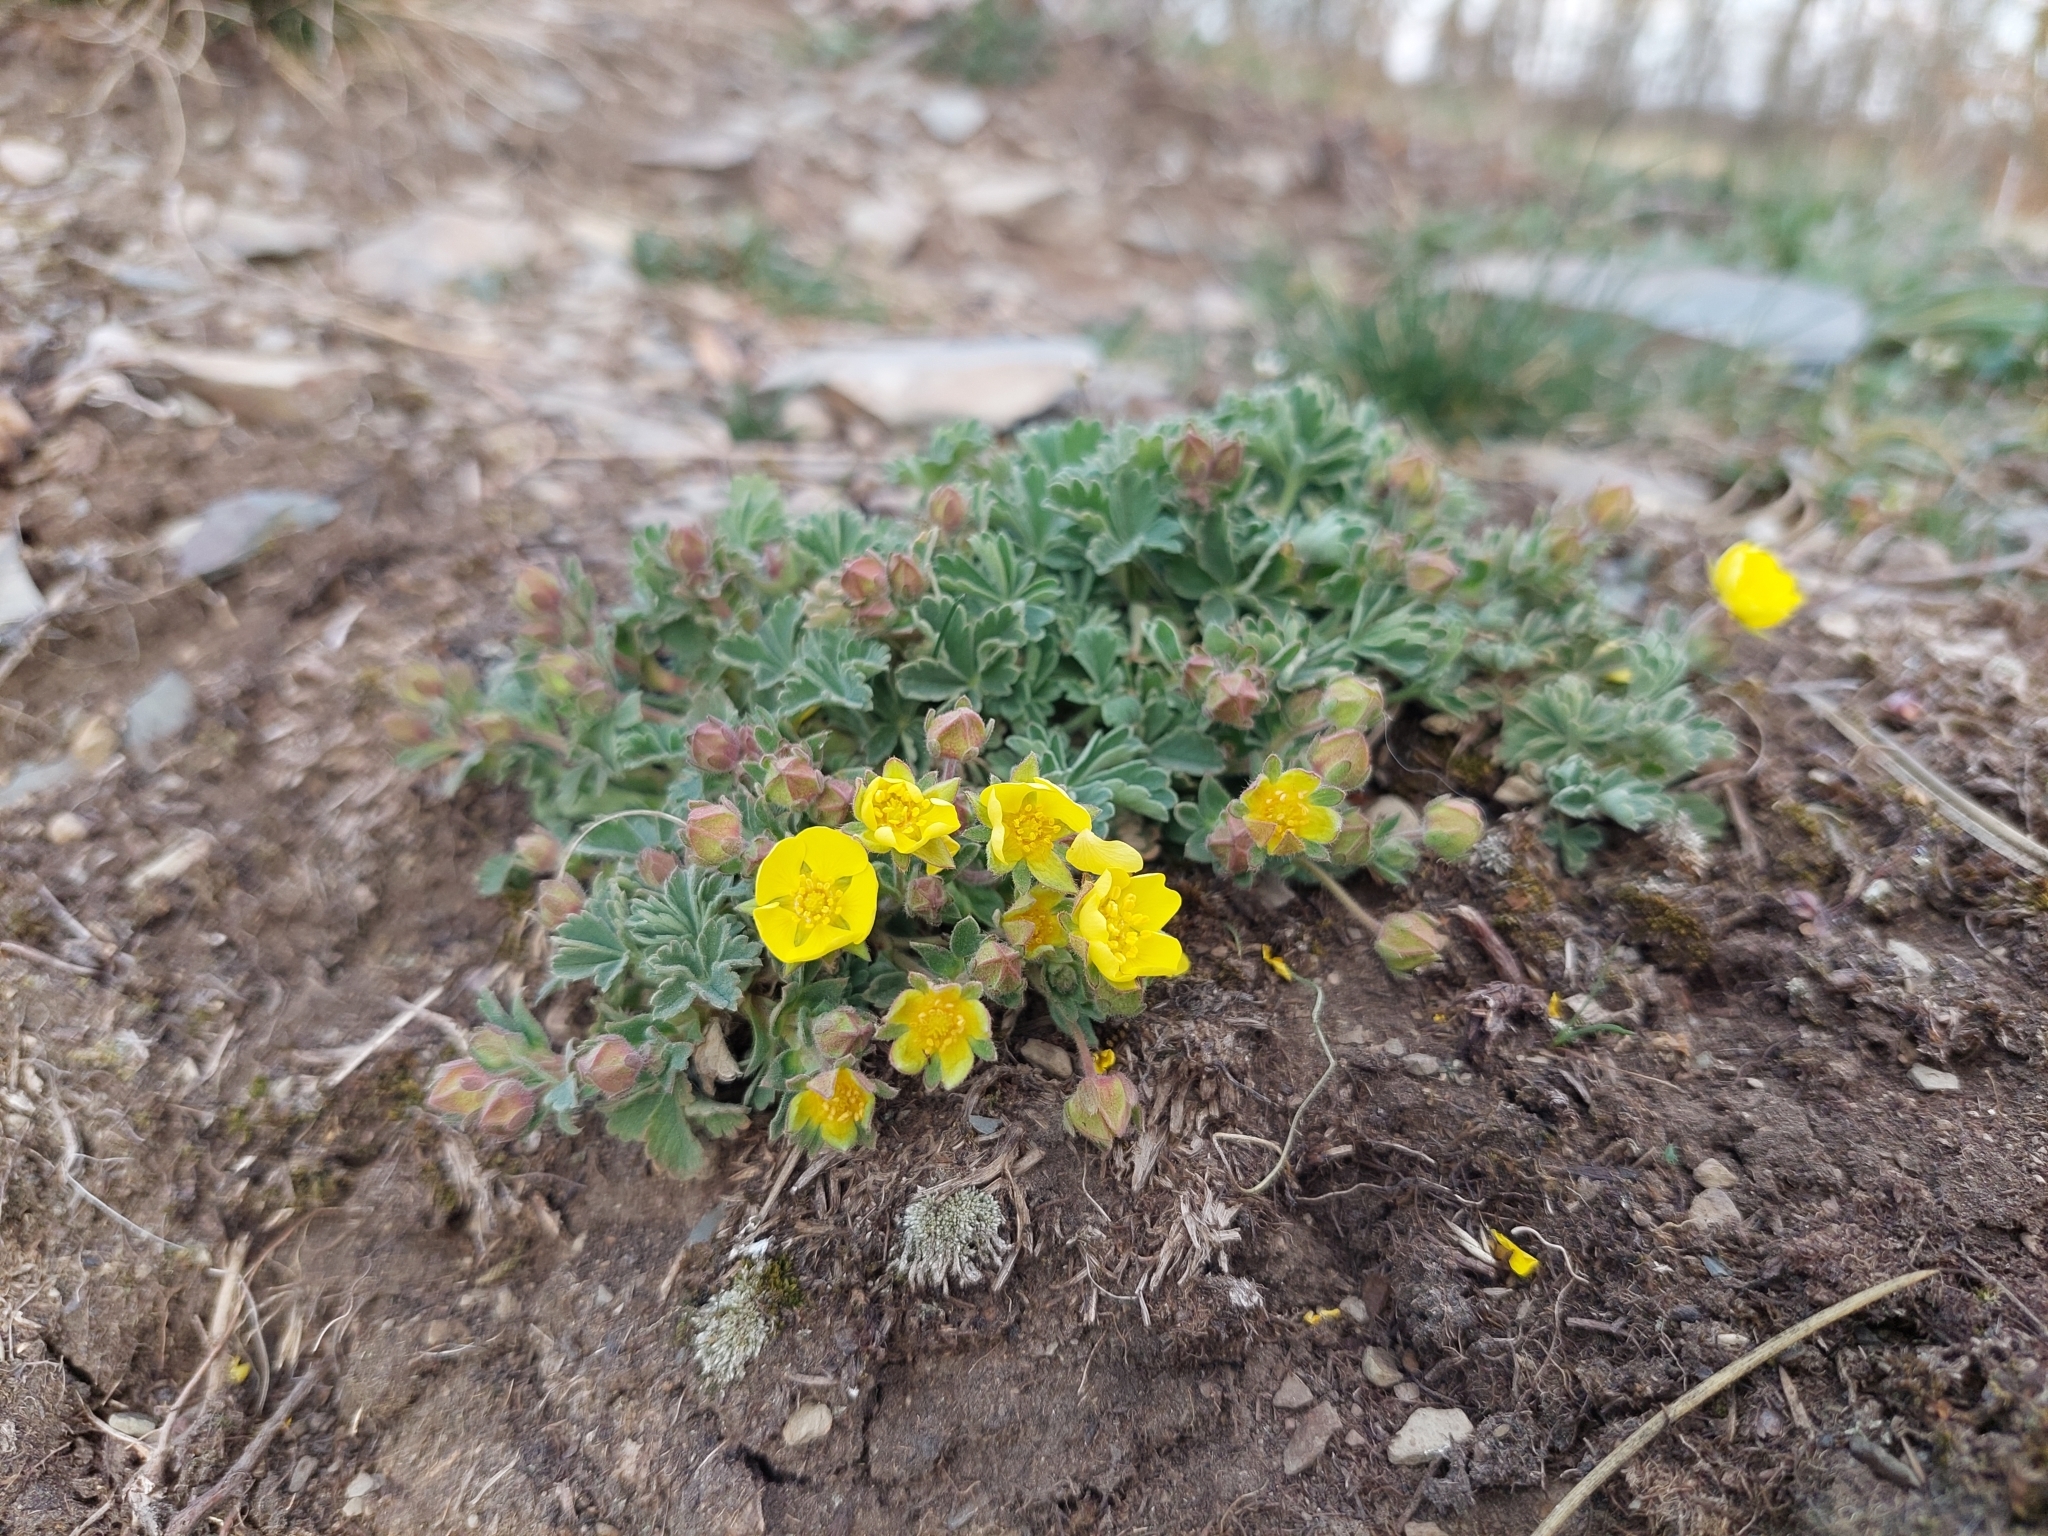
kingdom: Plantae
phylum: Tracheophyta
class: Magnoliopsida
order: Rosales
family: Rosaceae
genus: Potentilla
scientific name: Potentilla incana
